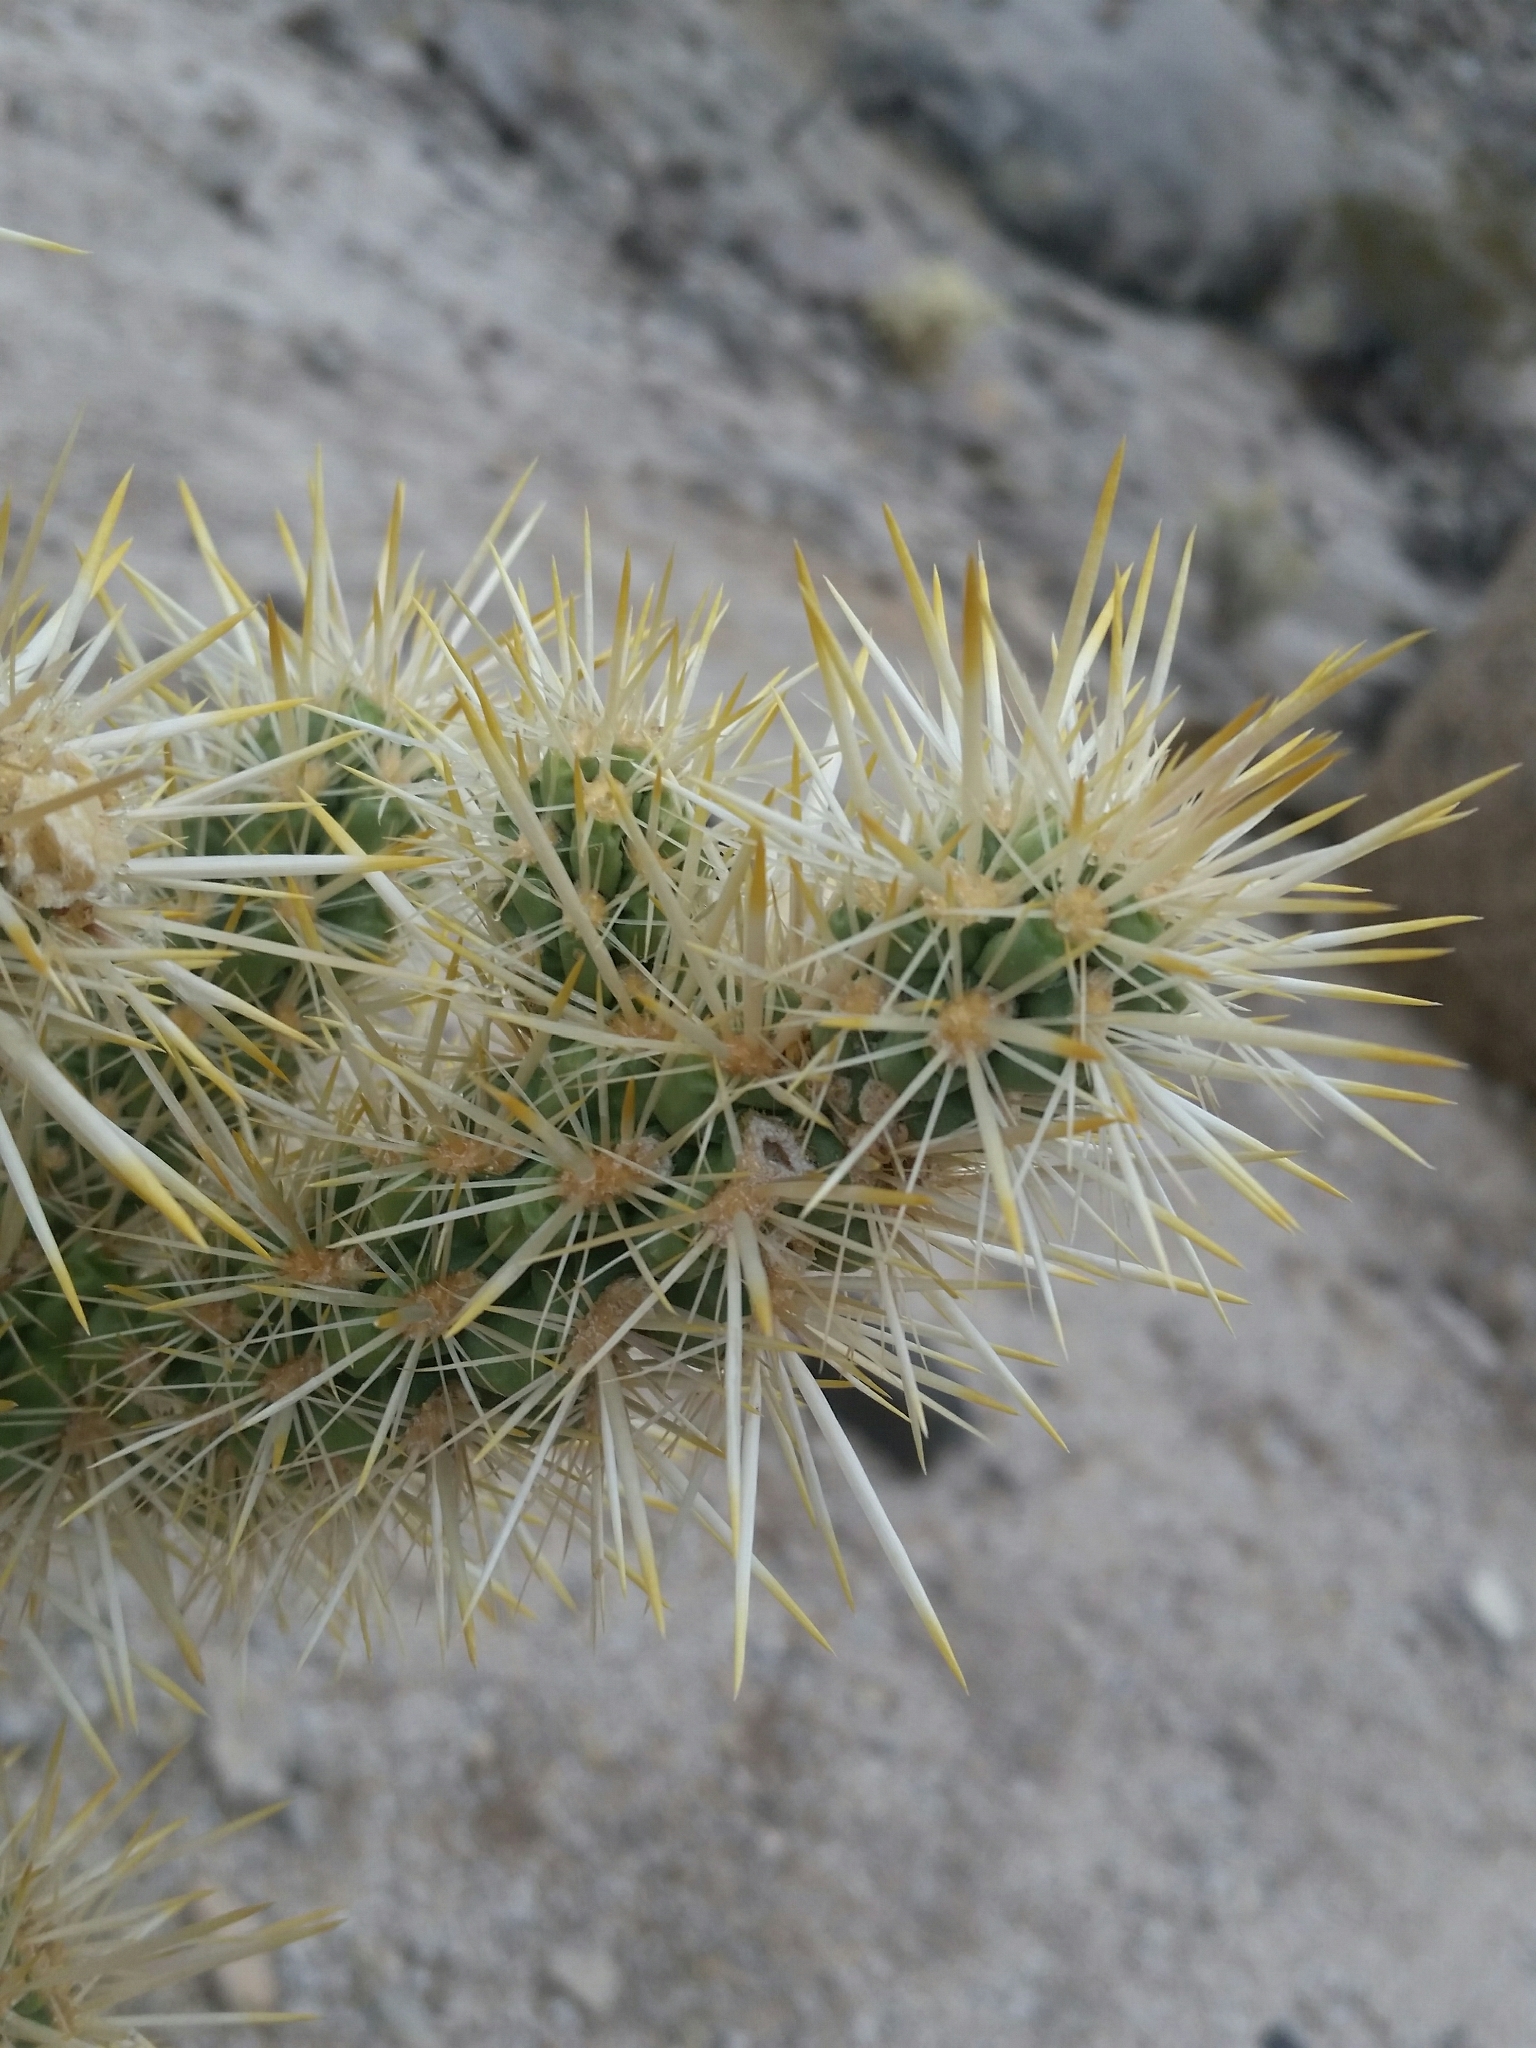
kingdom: Plantae
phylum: Tracheophyta
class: Magnoliopsida
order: Caryophyllales
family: Cactaceae
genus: Cylindropuntia
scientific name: Cylindropuntia echinocarpa
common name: Ground cholla
